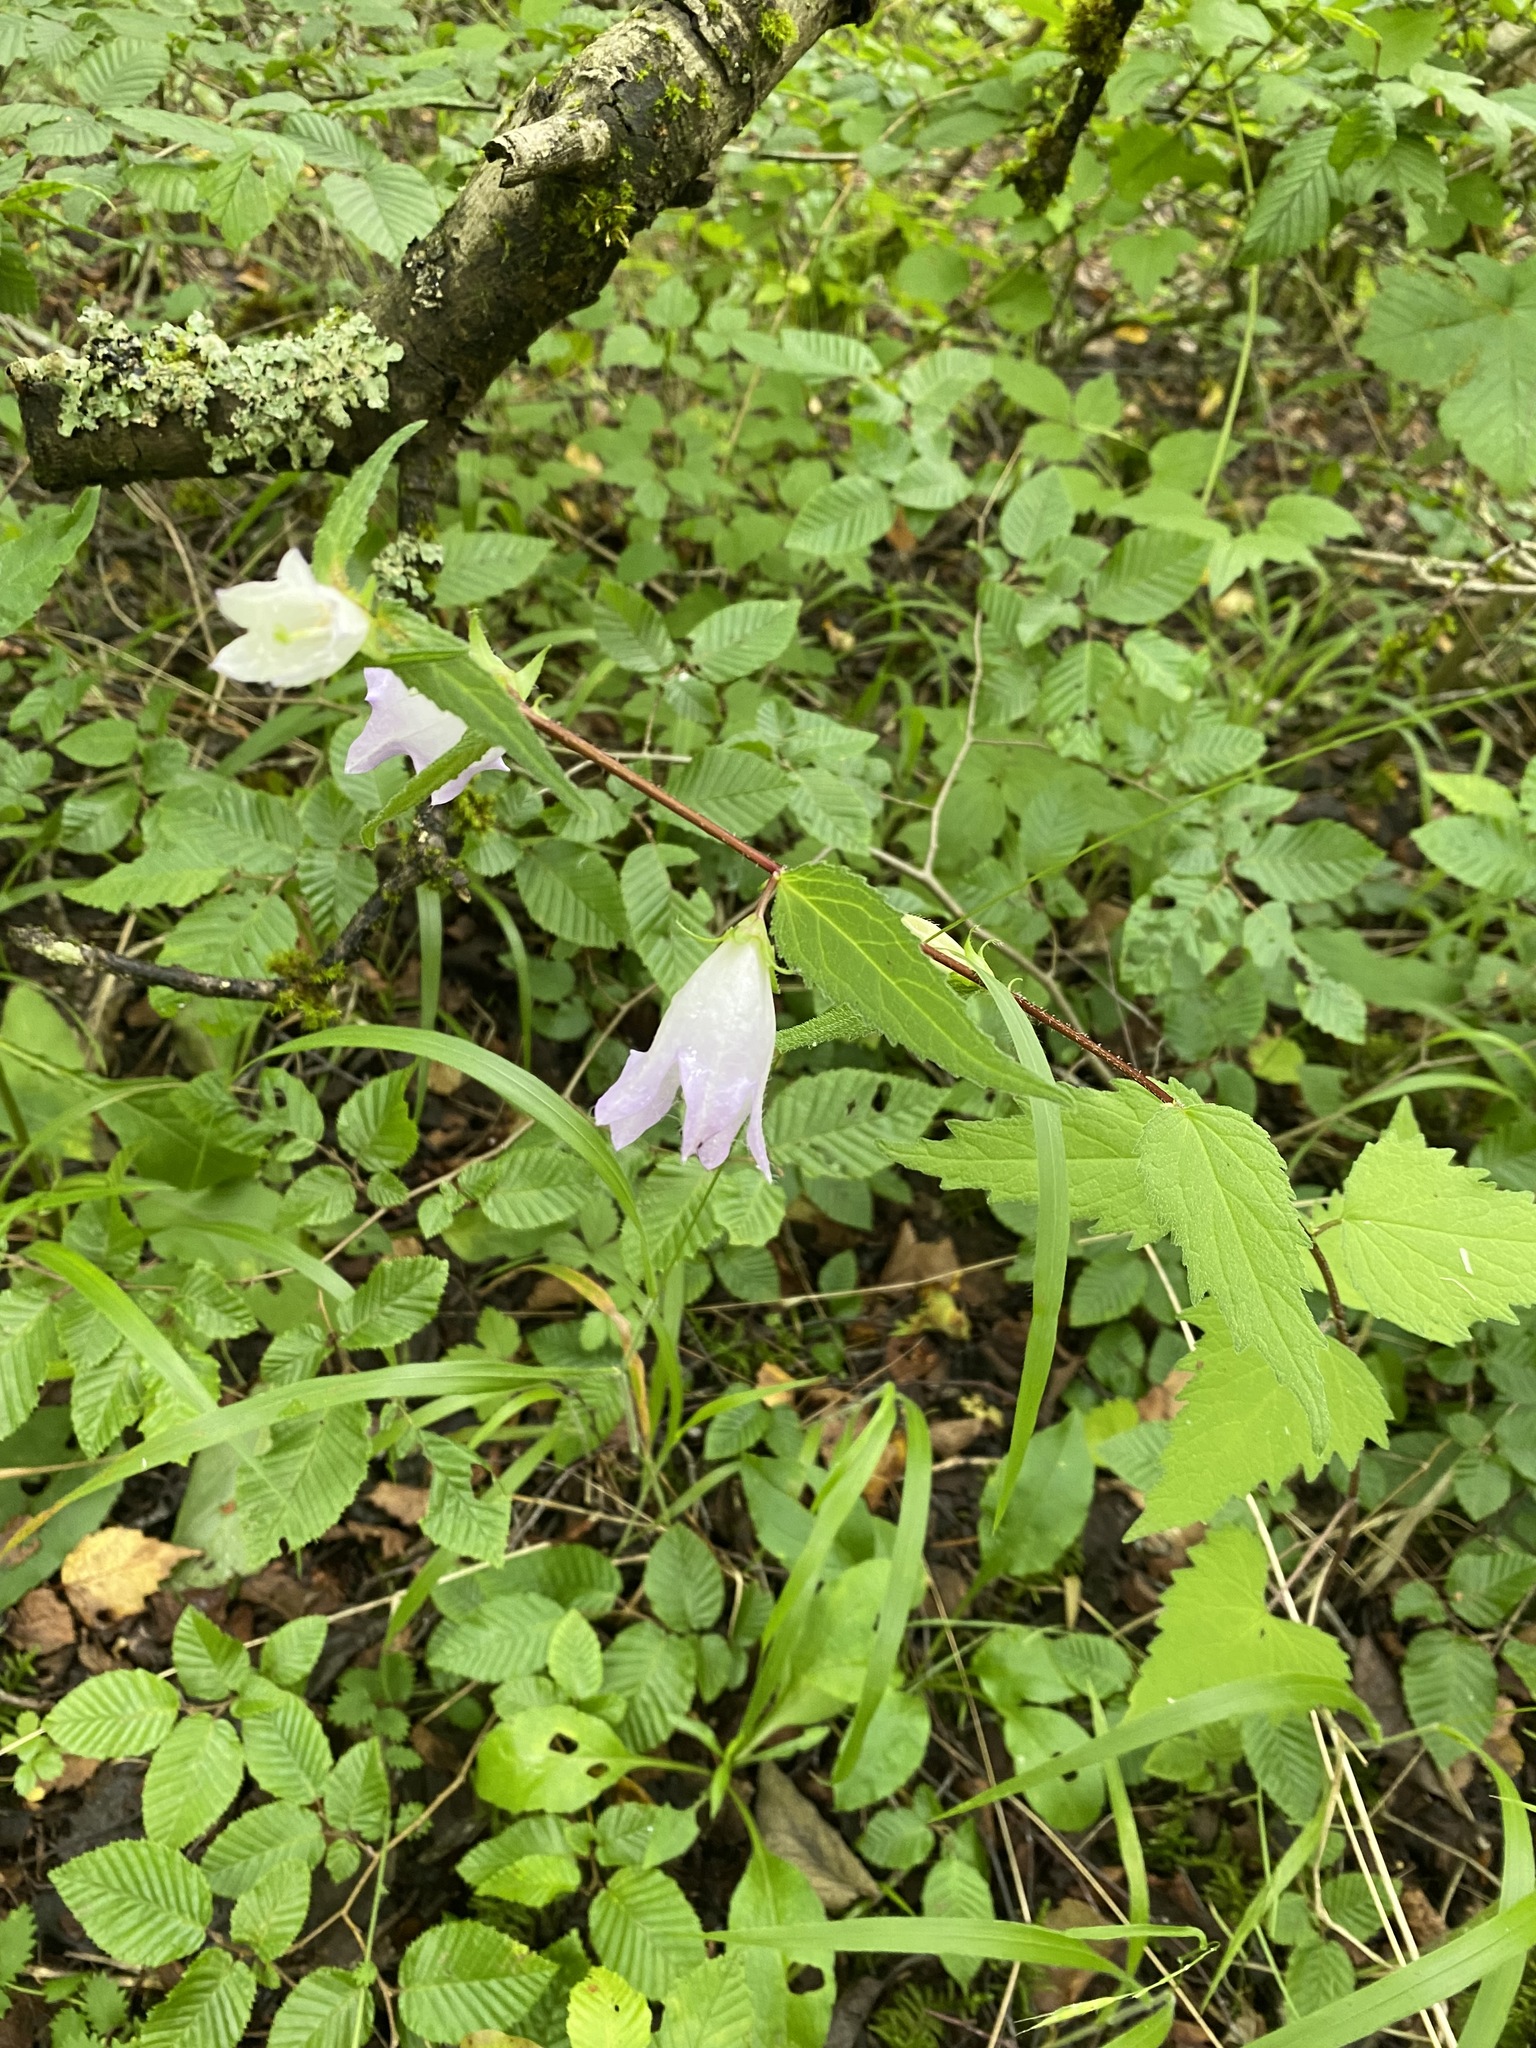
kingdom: Plantae
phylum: Tracheophyta
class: Magnoliopsida
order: Asterales
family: Campanulaceae
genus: Campanula
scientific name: Campanula trachelium
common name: Nettle-leaved bellflower
